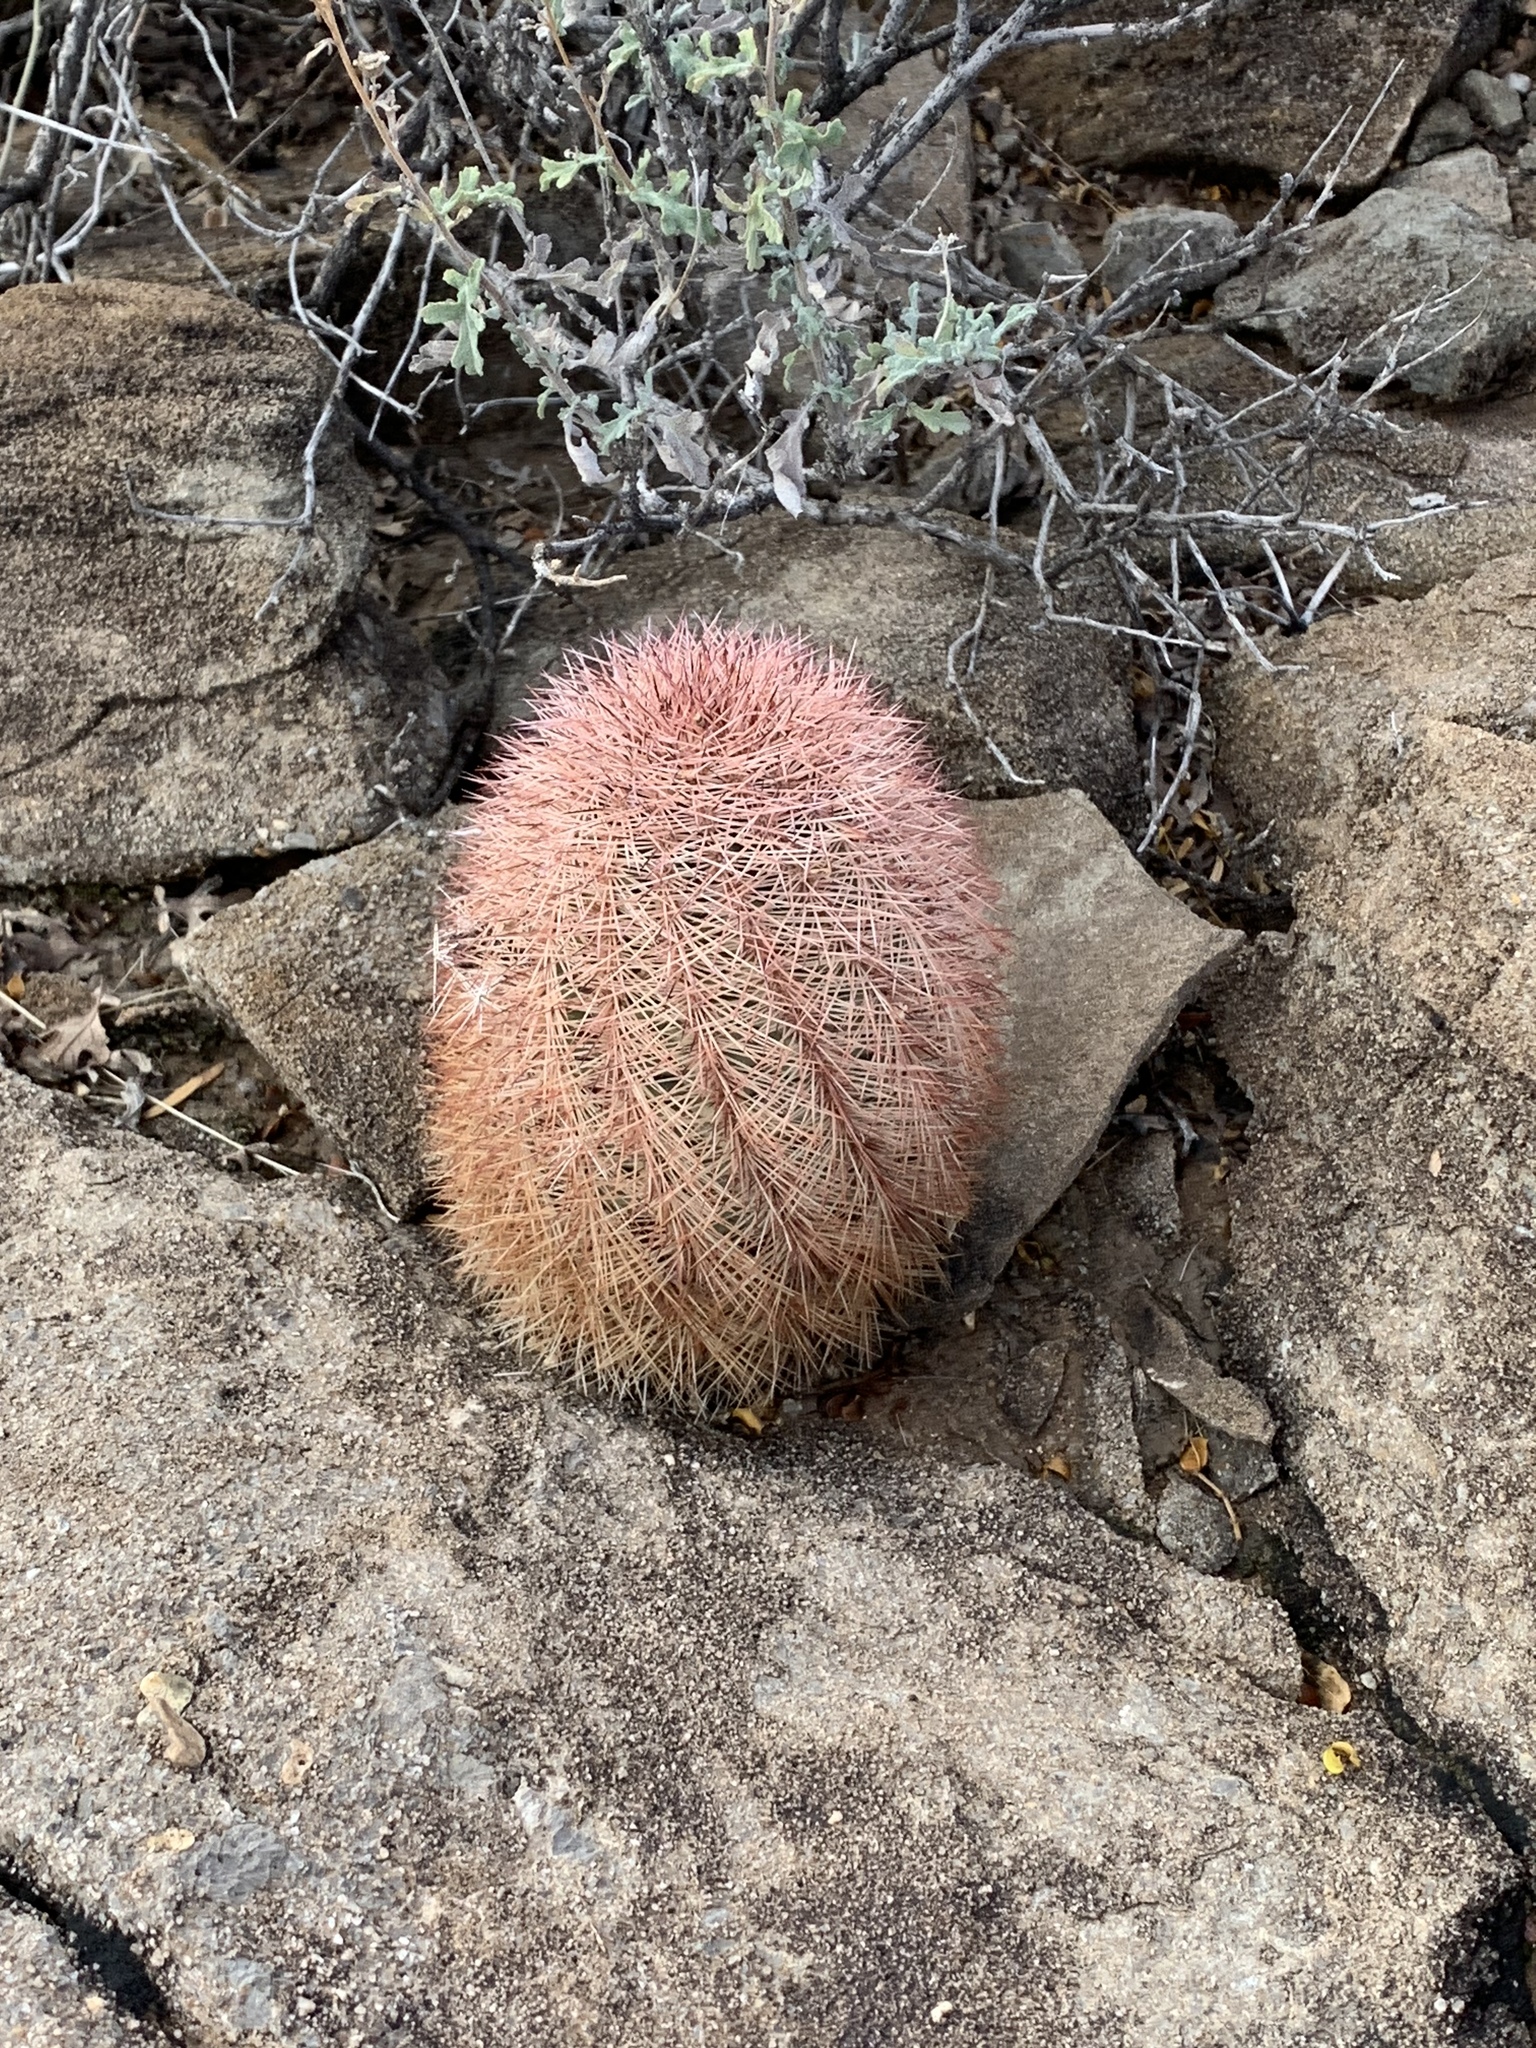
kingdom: Plantae
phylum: Tracheophyta
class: Magnoliopsida
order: Caryophyllales
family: Cactaceae
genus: Echinocereus
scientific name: Echinocereus dasyacanthus
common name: Spiny hedgehog cactus
